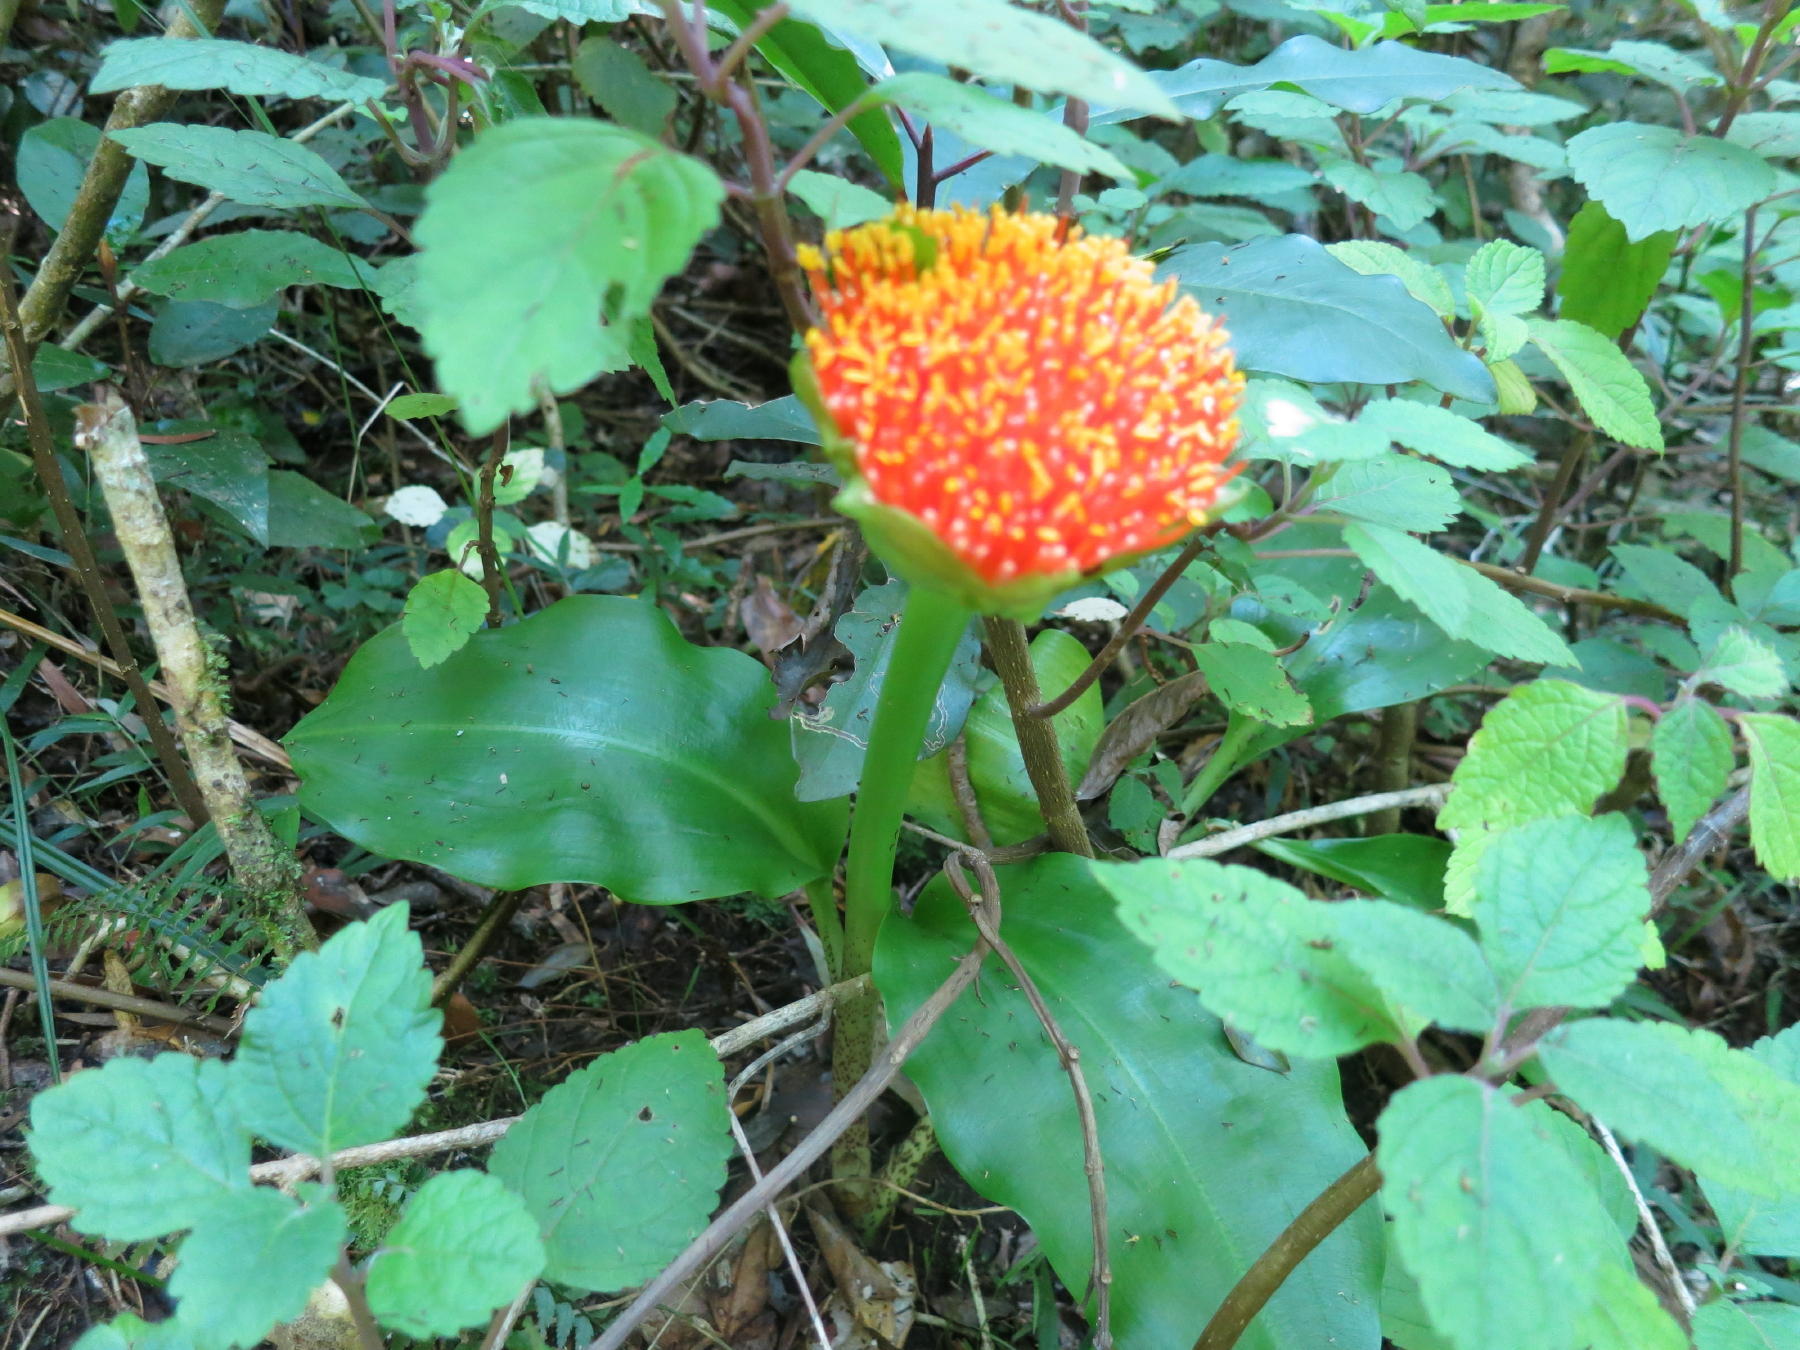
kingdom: Plantae
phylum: Tracheophyta
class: Liliopsida
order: Asparagales
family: Amaryllidaceae
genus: Scadoxus
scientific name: Scadoxus puniceus
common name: Royal-paintbrush
